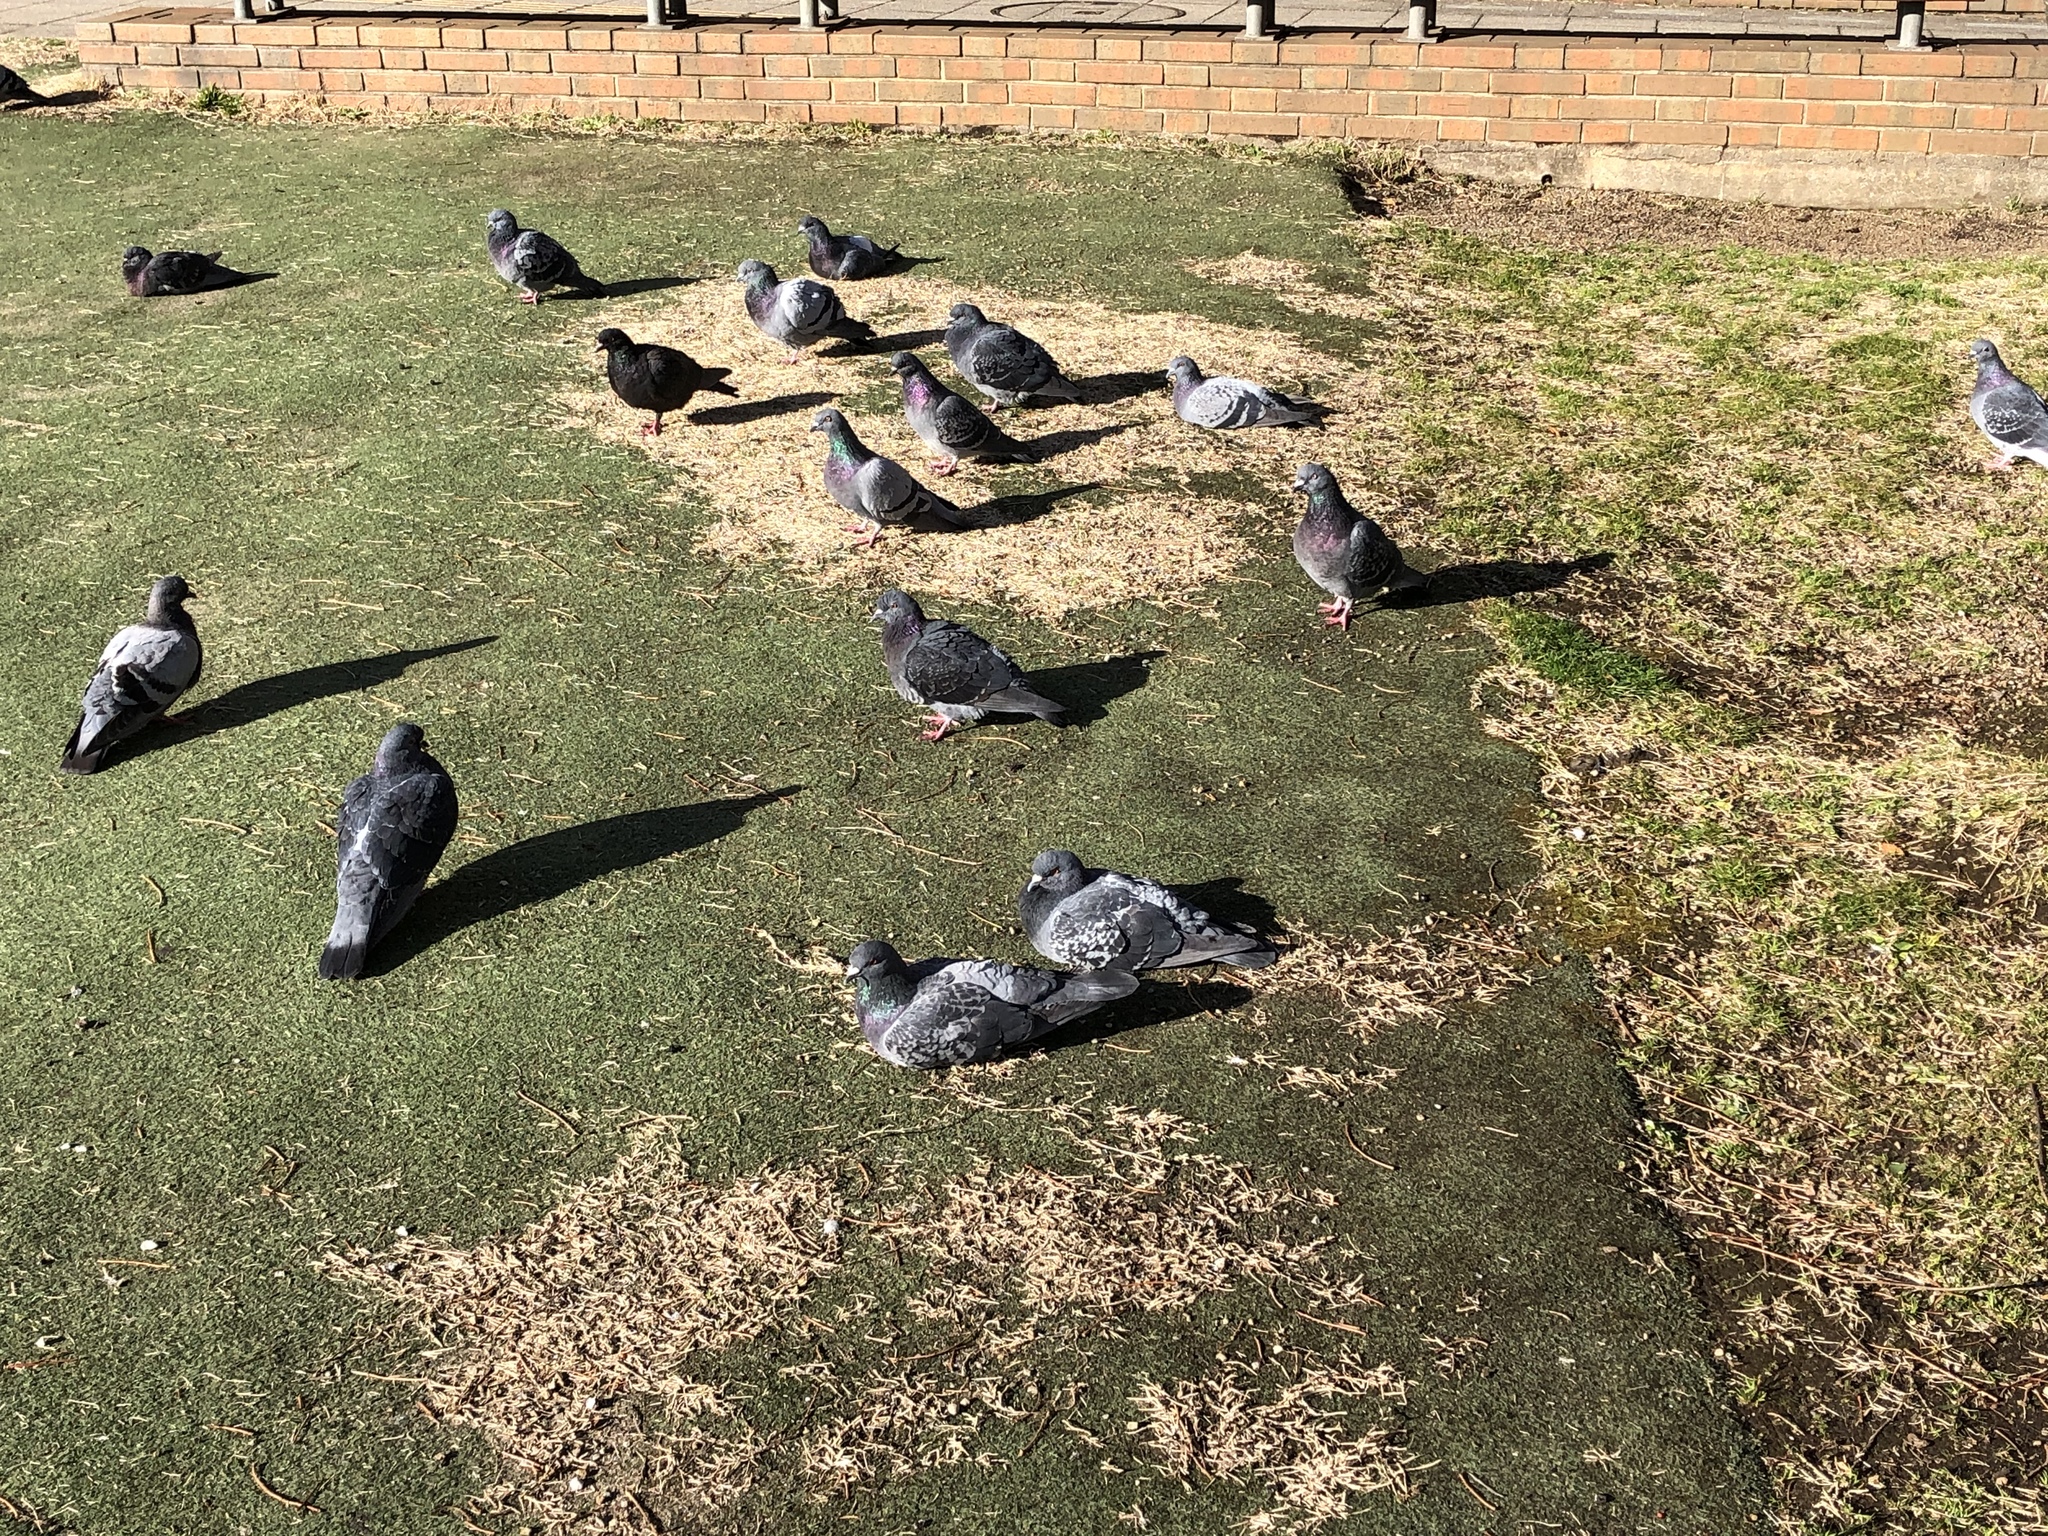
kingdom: Animalia
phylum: Chordata
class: Aves
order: Columbiformes
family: Columbidae
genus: Columba
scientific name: Columba livia
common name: Rock pigeon
